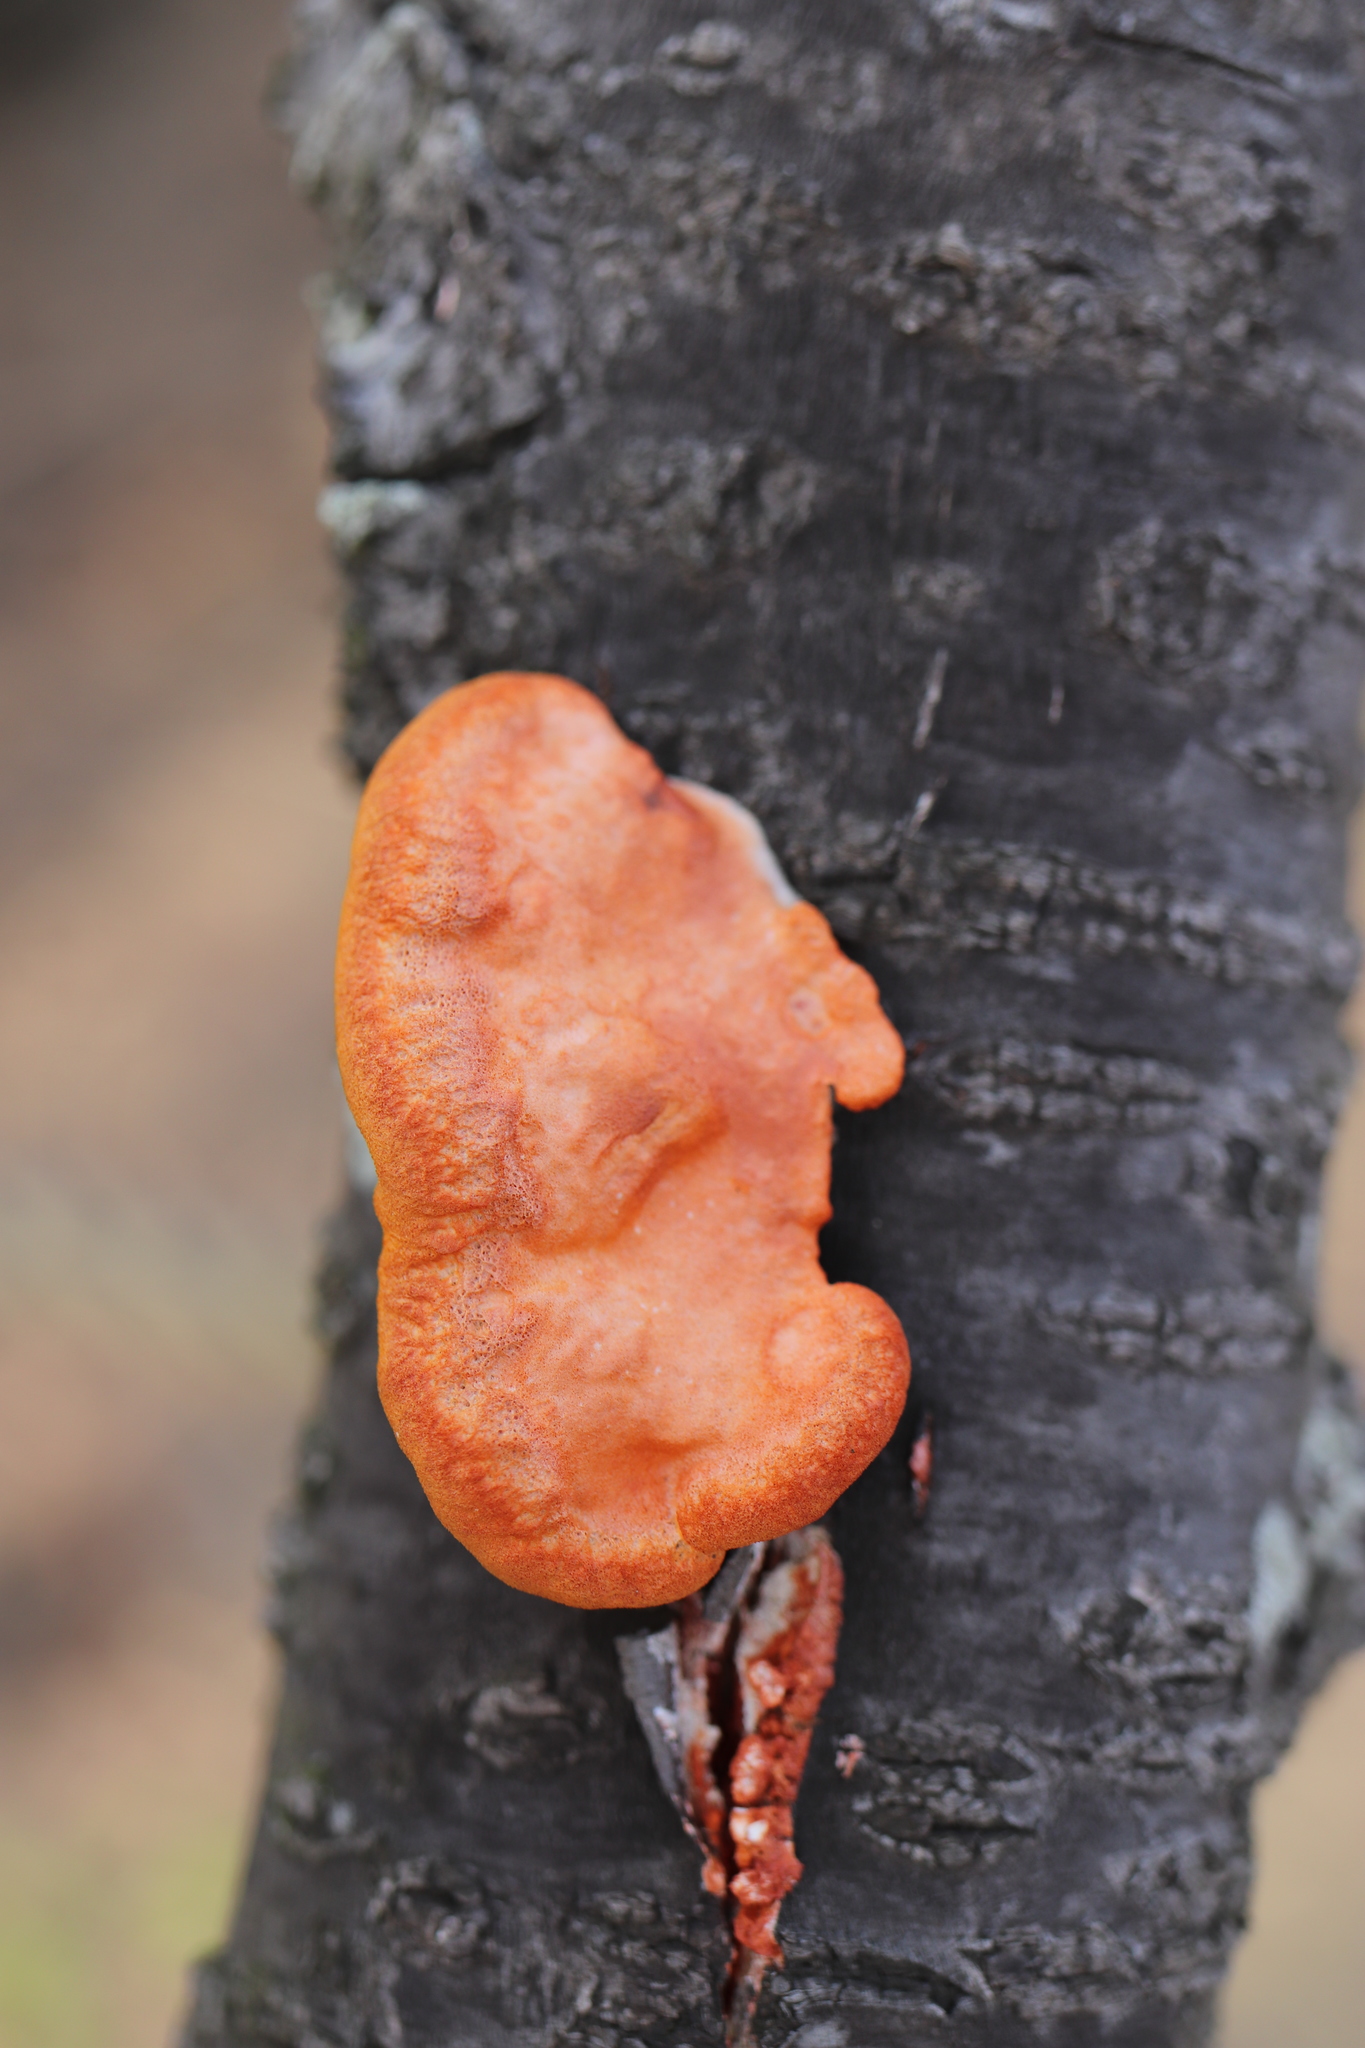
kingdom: Fungi
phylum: Basidiomycota
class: Agaricomycetes
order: Polyporales
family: Polyporaceae
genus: Trametes
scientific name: Trametes coccinea
